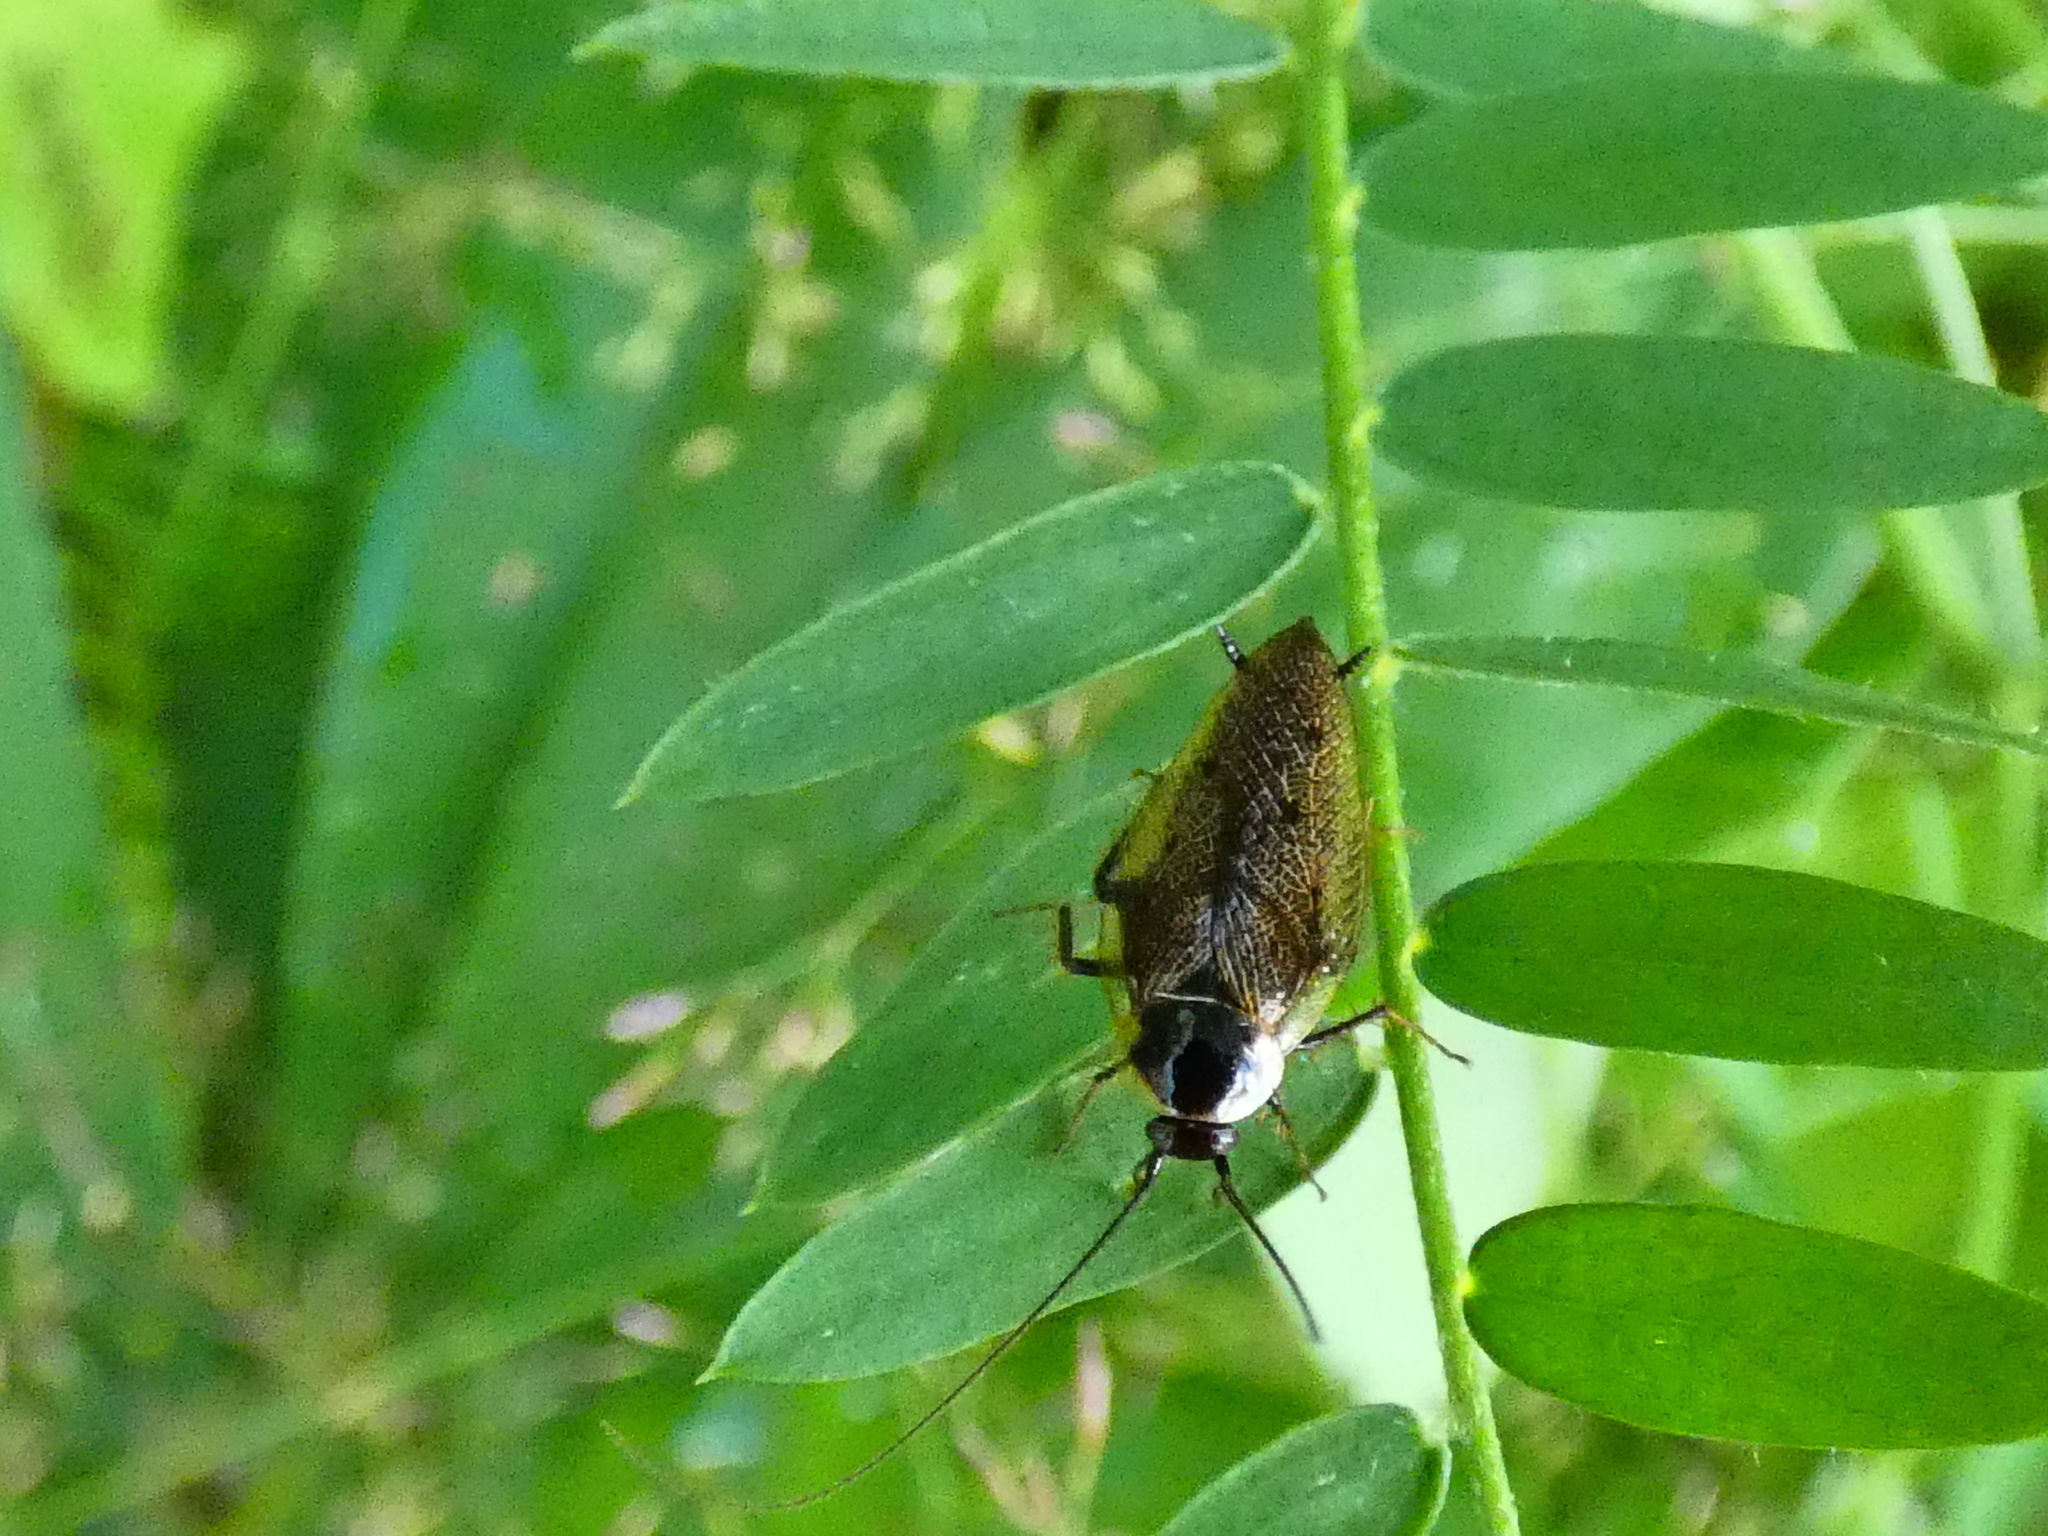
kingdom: Animalia
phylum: Arthropoda
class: Insecta
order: Blattodea
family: Ectobiidae
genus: Ectobius
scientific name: Ectobius lapponicus
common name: Dusky cockroach
